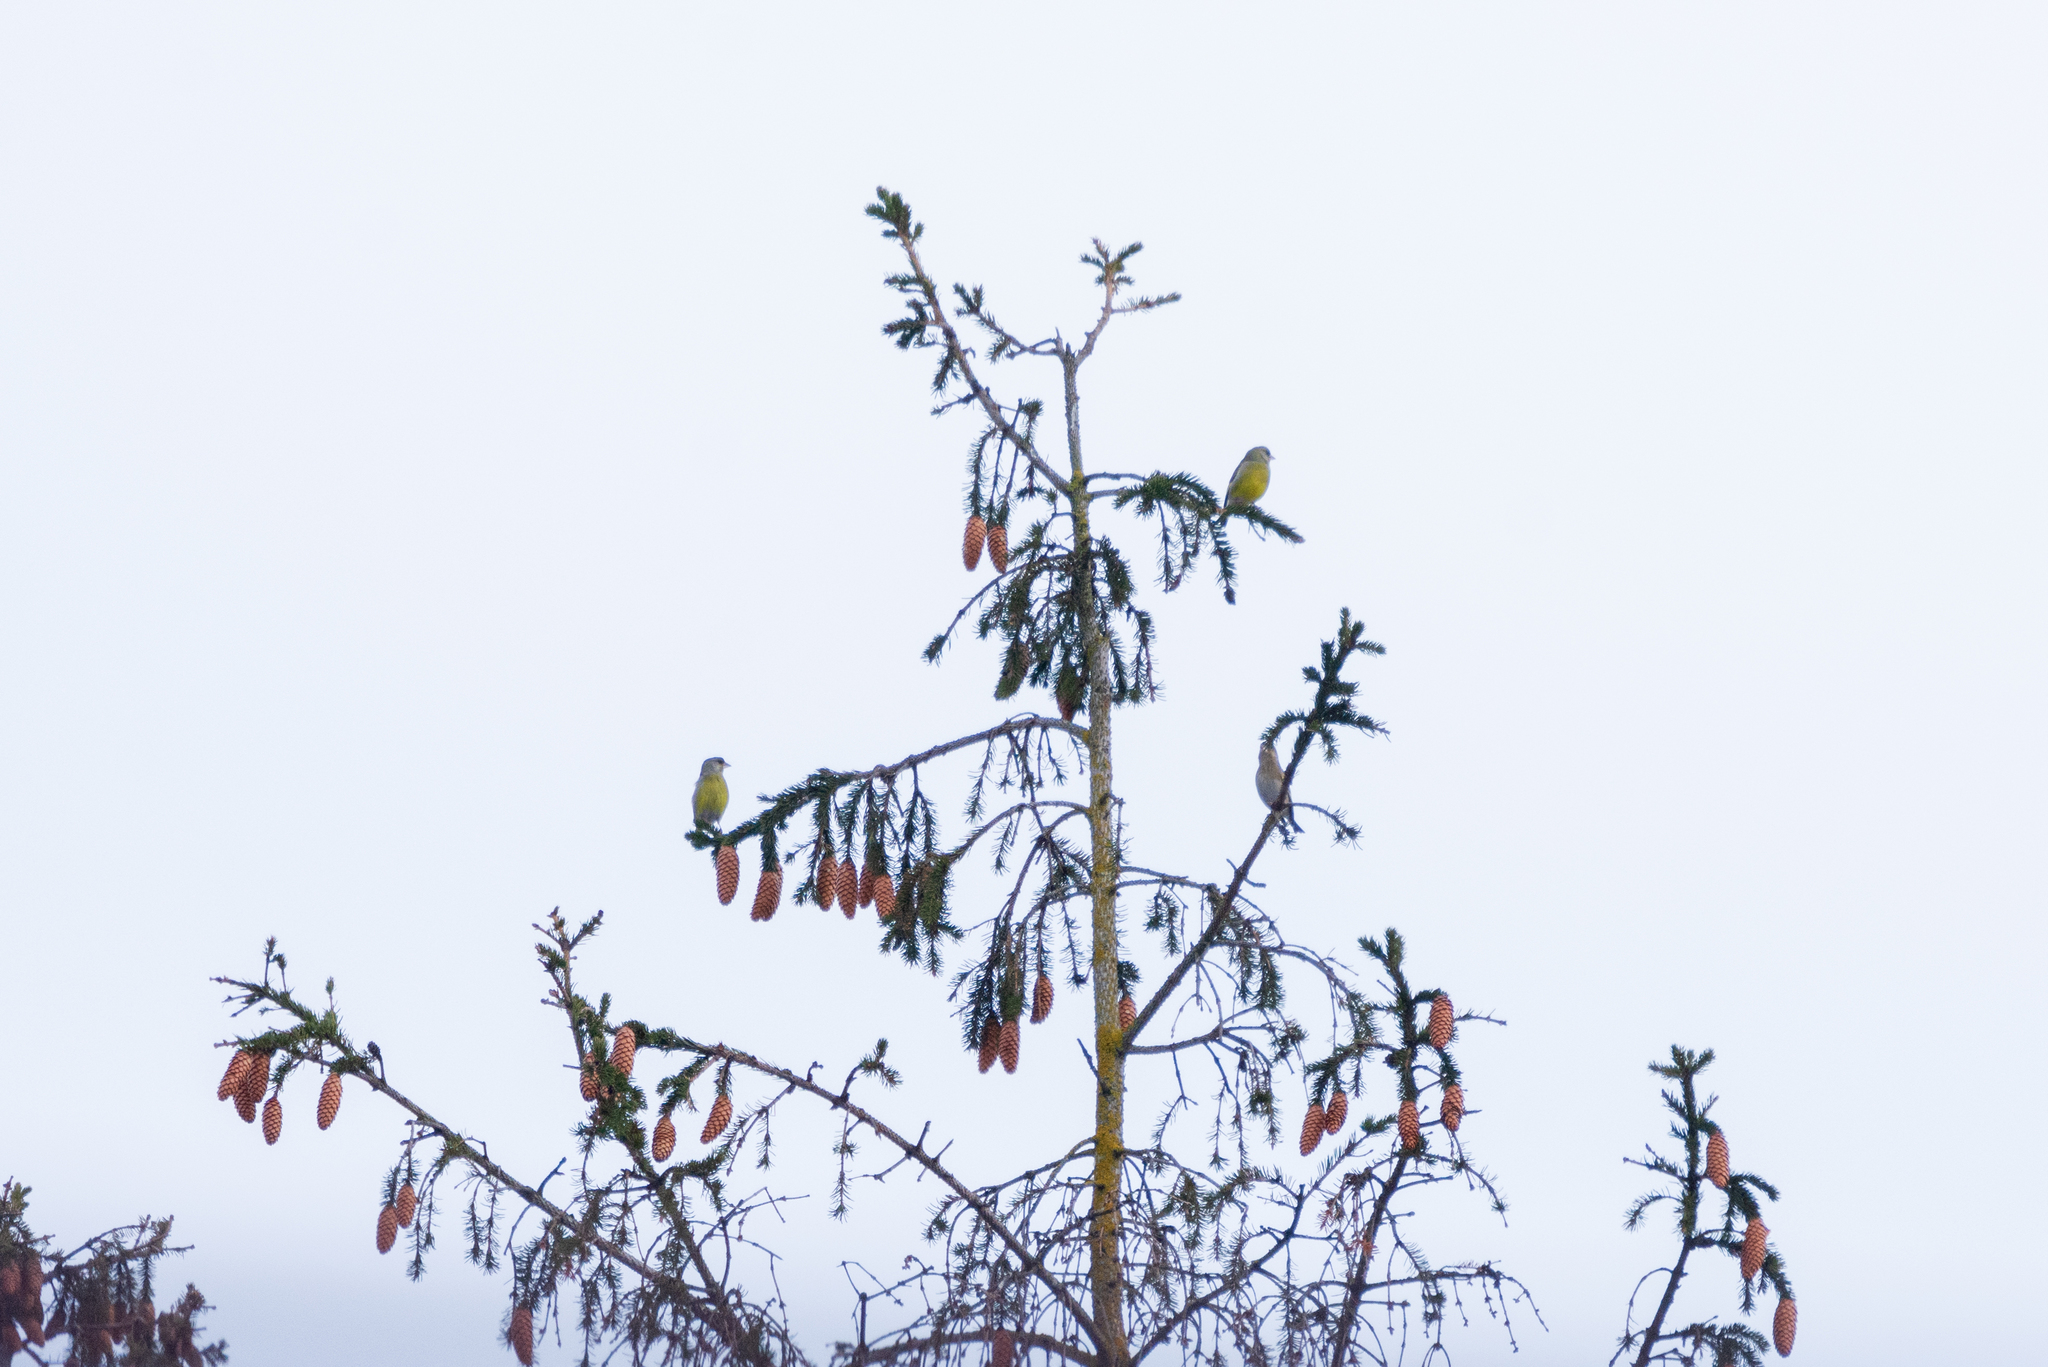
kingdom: Plantae
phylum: Tracheophyta
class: Liliopsida
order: Poales
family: Poaceae
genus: Chloris
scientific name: Chloris chloris
